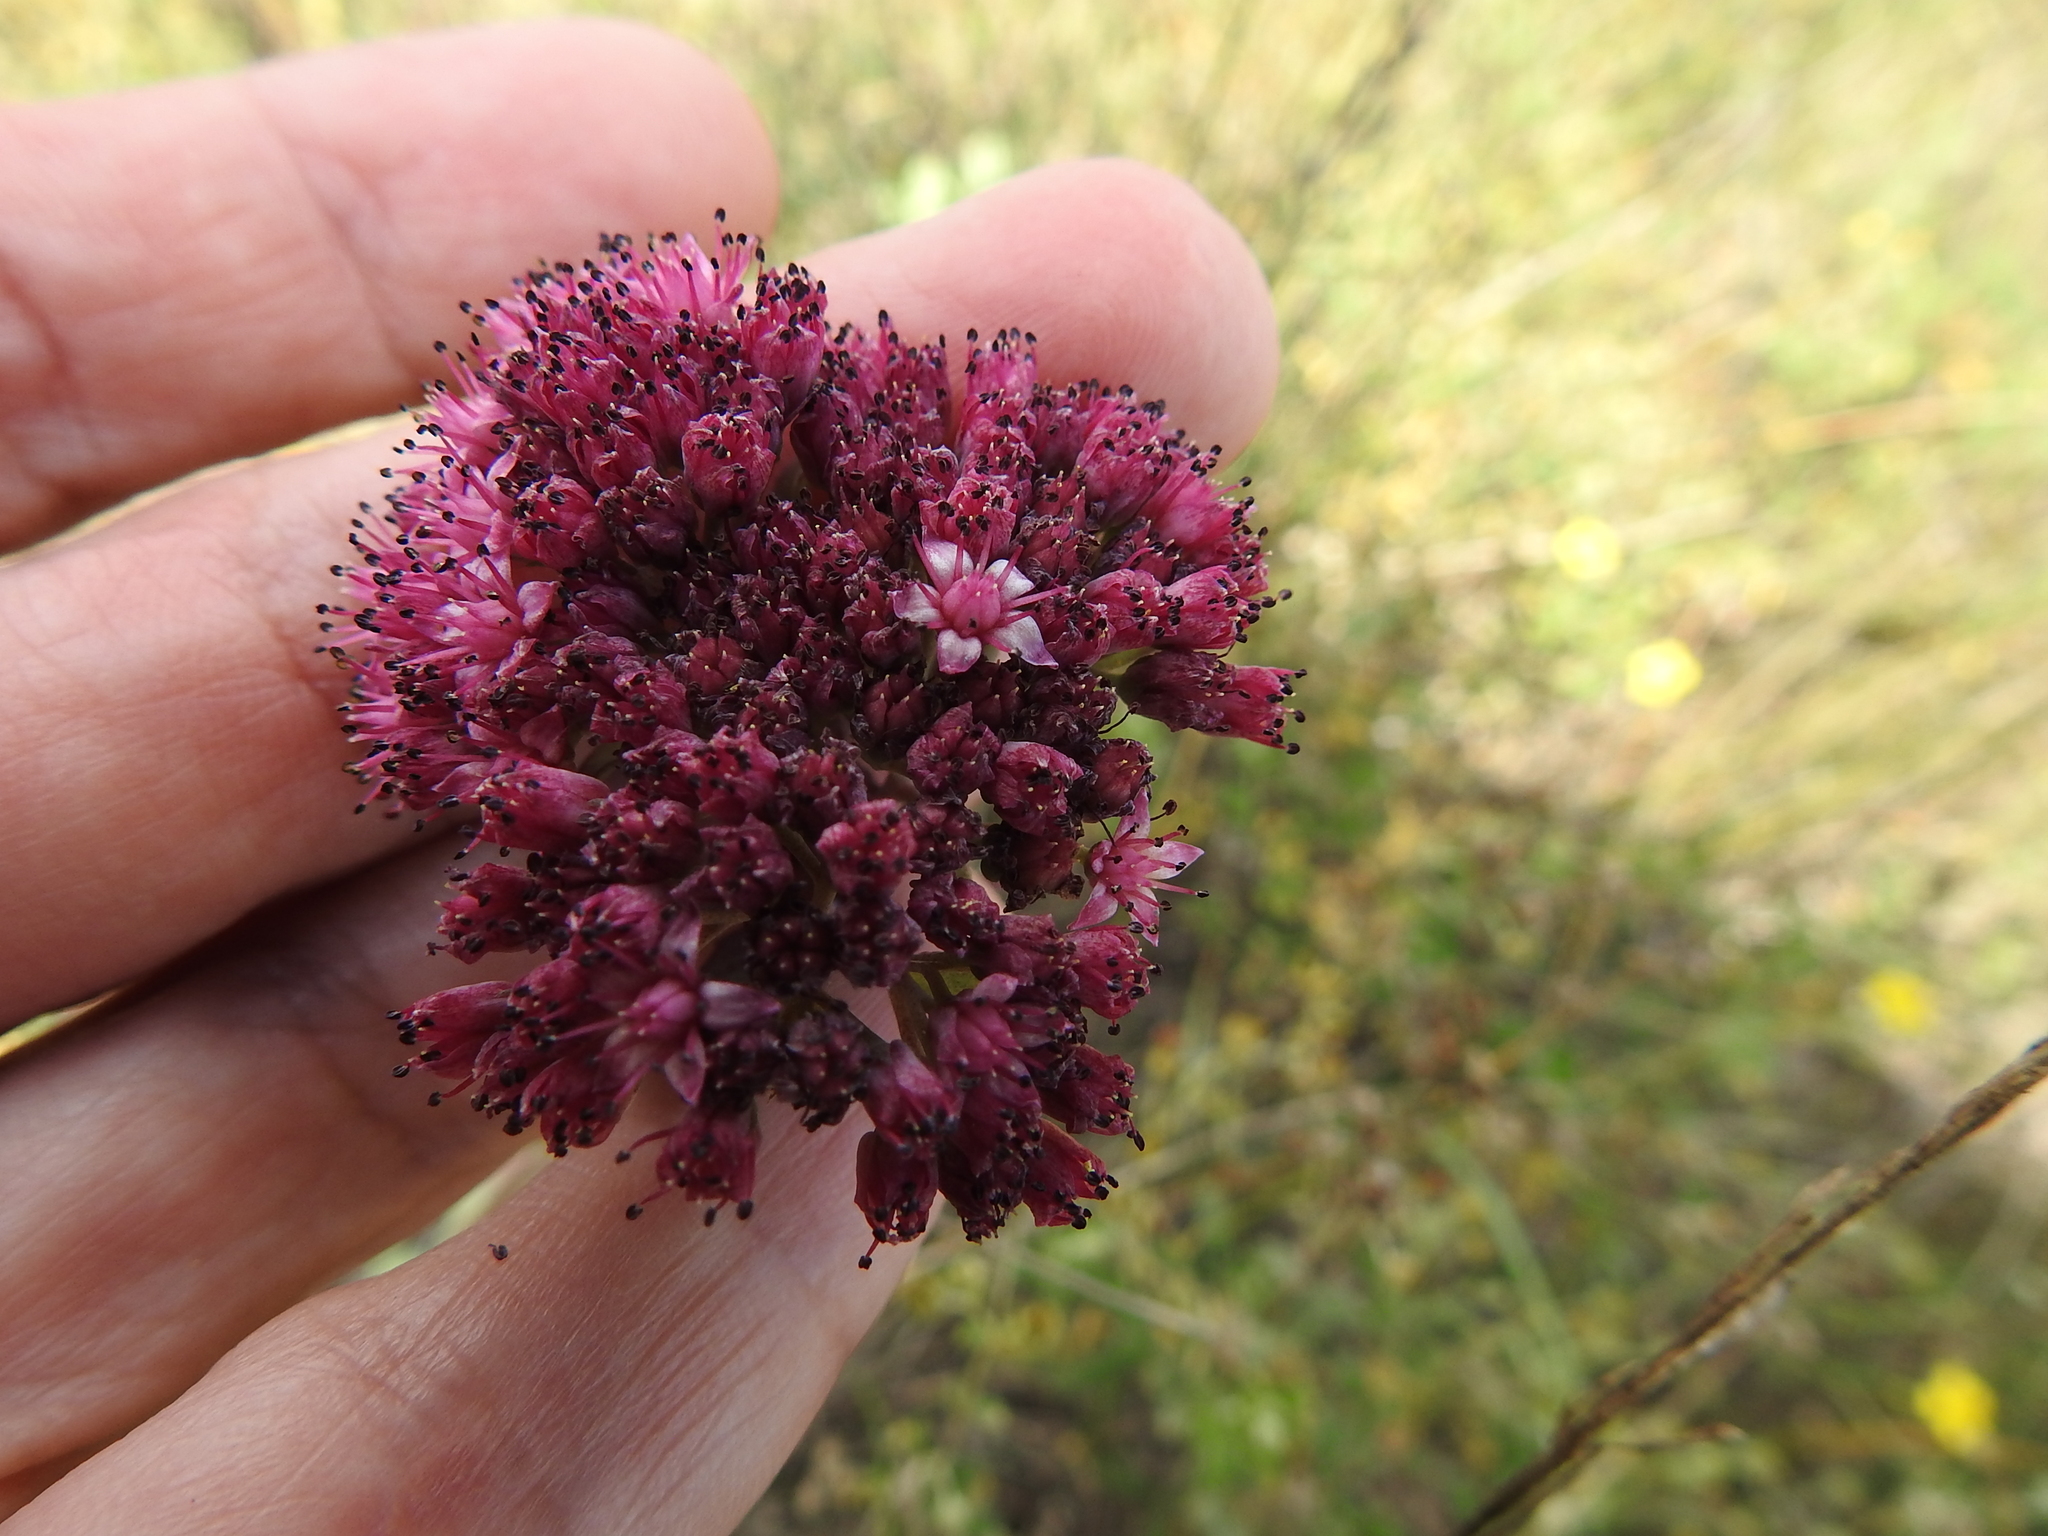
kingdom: Plantae
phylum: Tracheophyta
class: Magnoliopsida
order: Saxifragales
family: Crassulaceae
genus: Hylotelephium
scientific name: Hylotelephium telephium
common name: Live-forever
